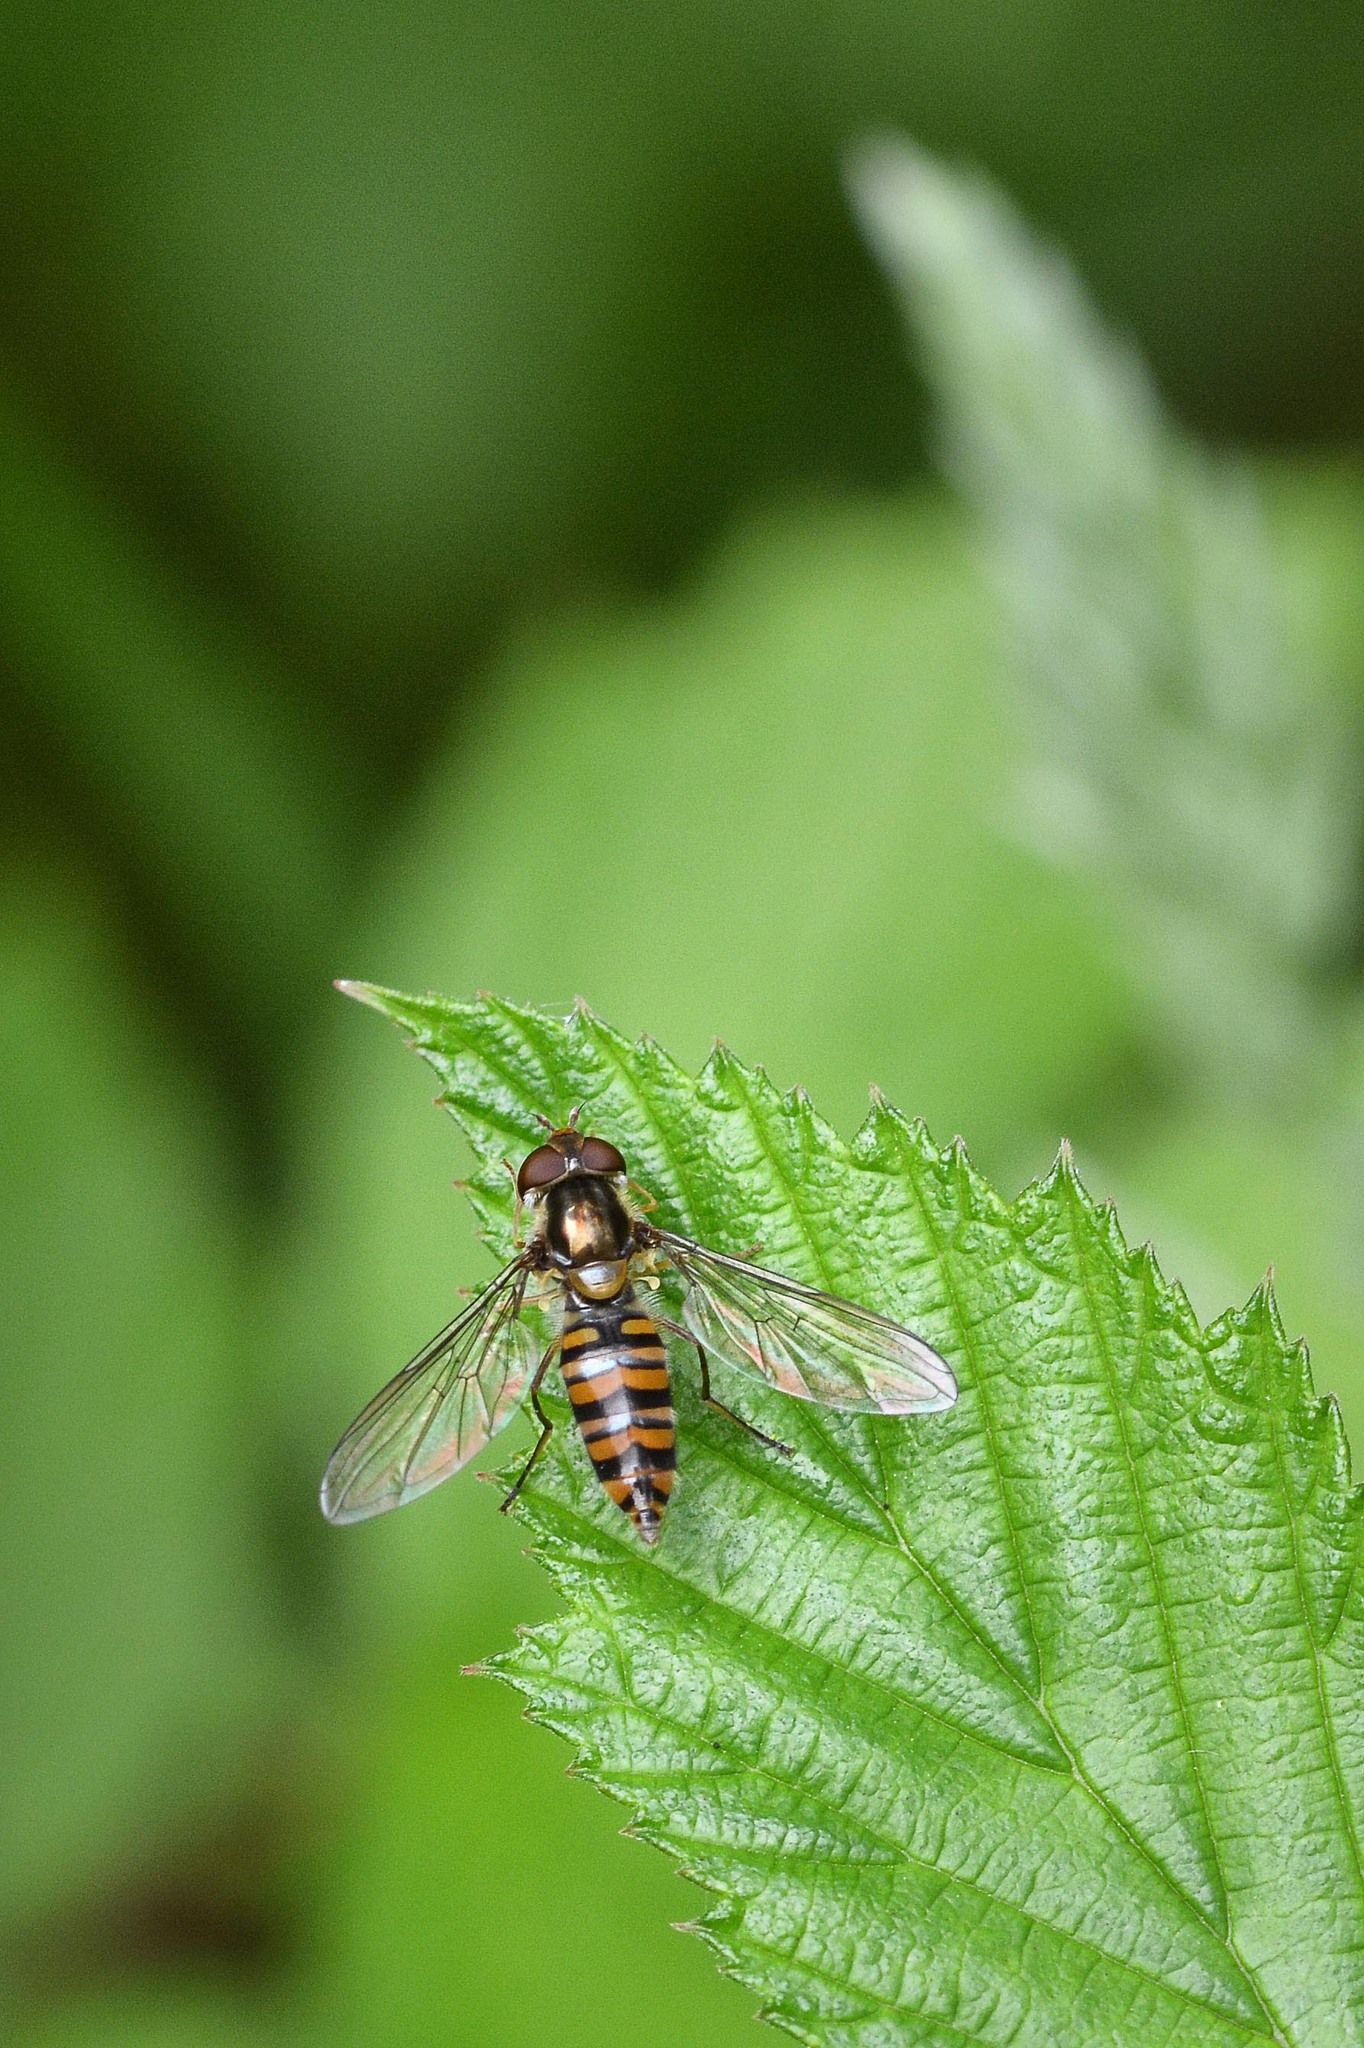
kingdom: Animalia
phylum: Arthropoda
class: Insecta
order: Diptera
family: Syrphidae
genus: Episyrphus
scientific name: Episyrphus balteatus
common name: Marmalade hoverfly
